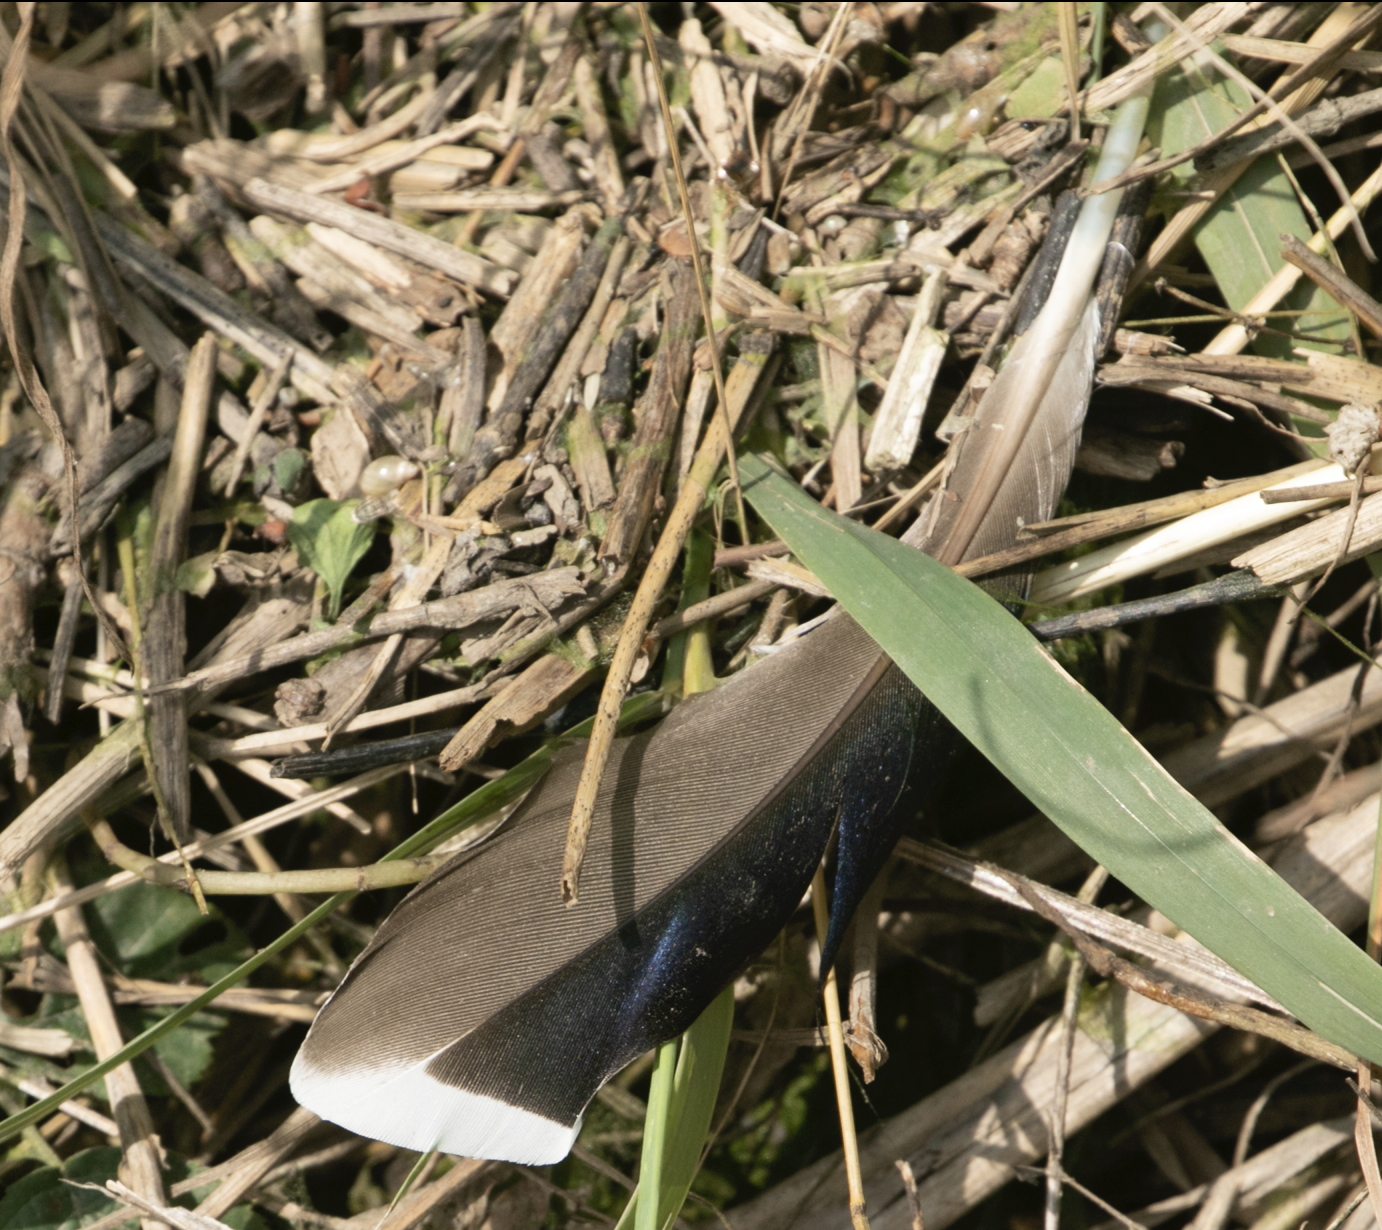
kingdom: Animalia
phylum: Chordata
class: Aves
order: Anseriformes
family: Anatidae
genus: Anas
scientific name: Anas platyrhynchos
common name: Mallard
